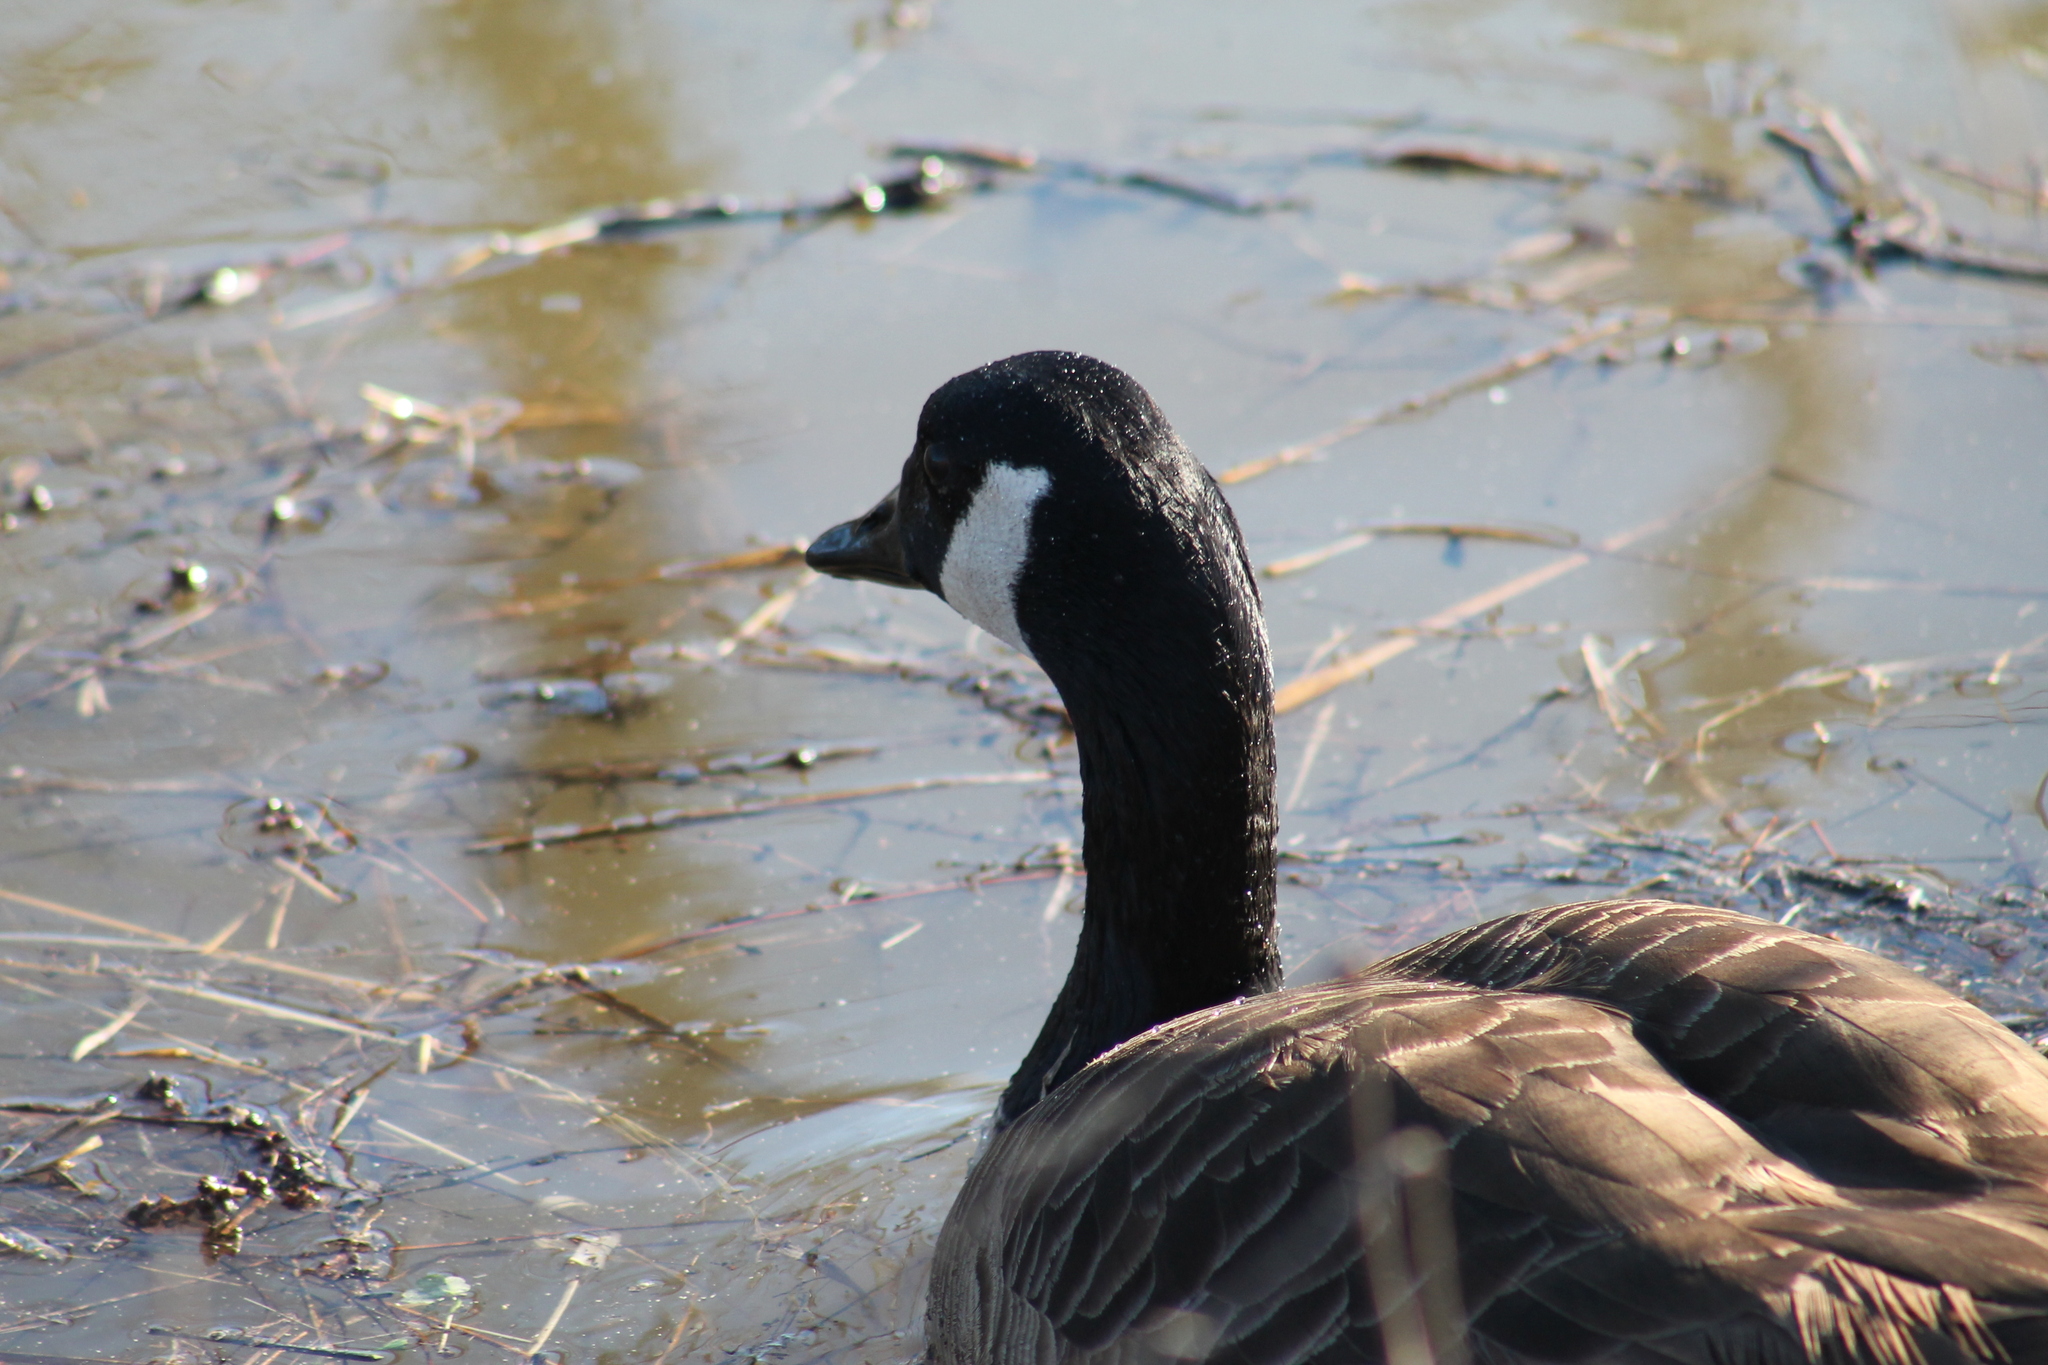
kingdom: Animalia
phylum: Chordata
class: Aves
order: Anseriformes
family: Anatidae
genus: Branta
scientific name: Branta canadensis
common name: Canada goose
